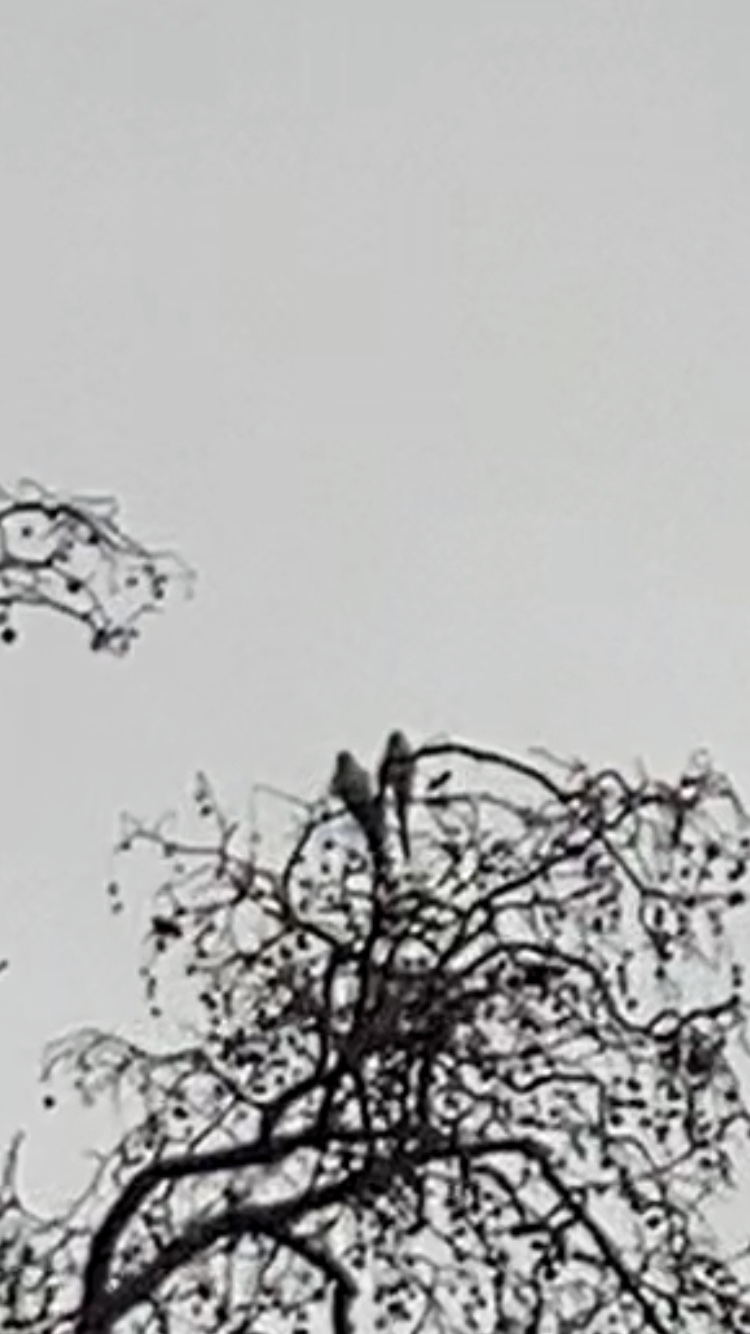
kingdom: Animalia
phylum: Chordata
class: Aves
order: Psittaciformes
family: Psittacidae
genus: Psittacula
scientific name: Psittacula krameri
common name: Rose-ringed parakeet
